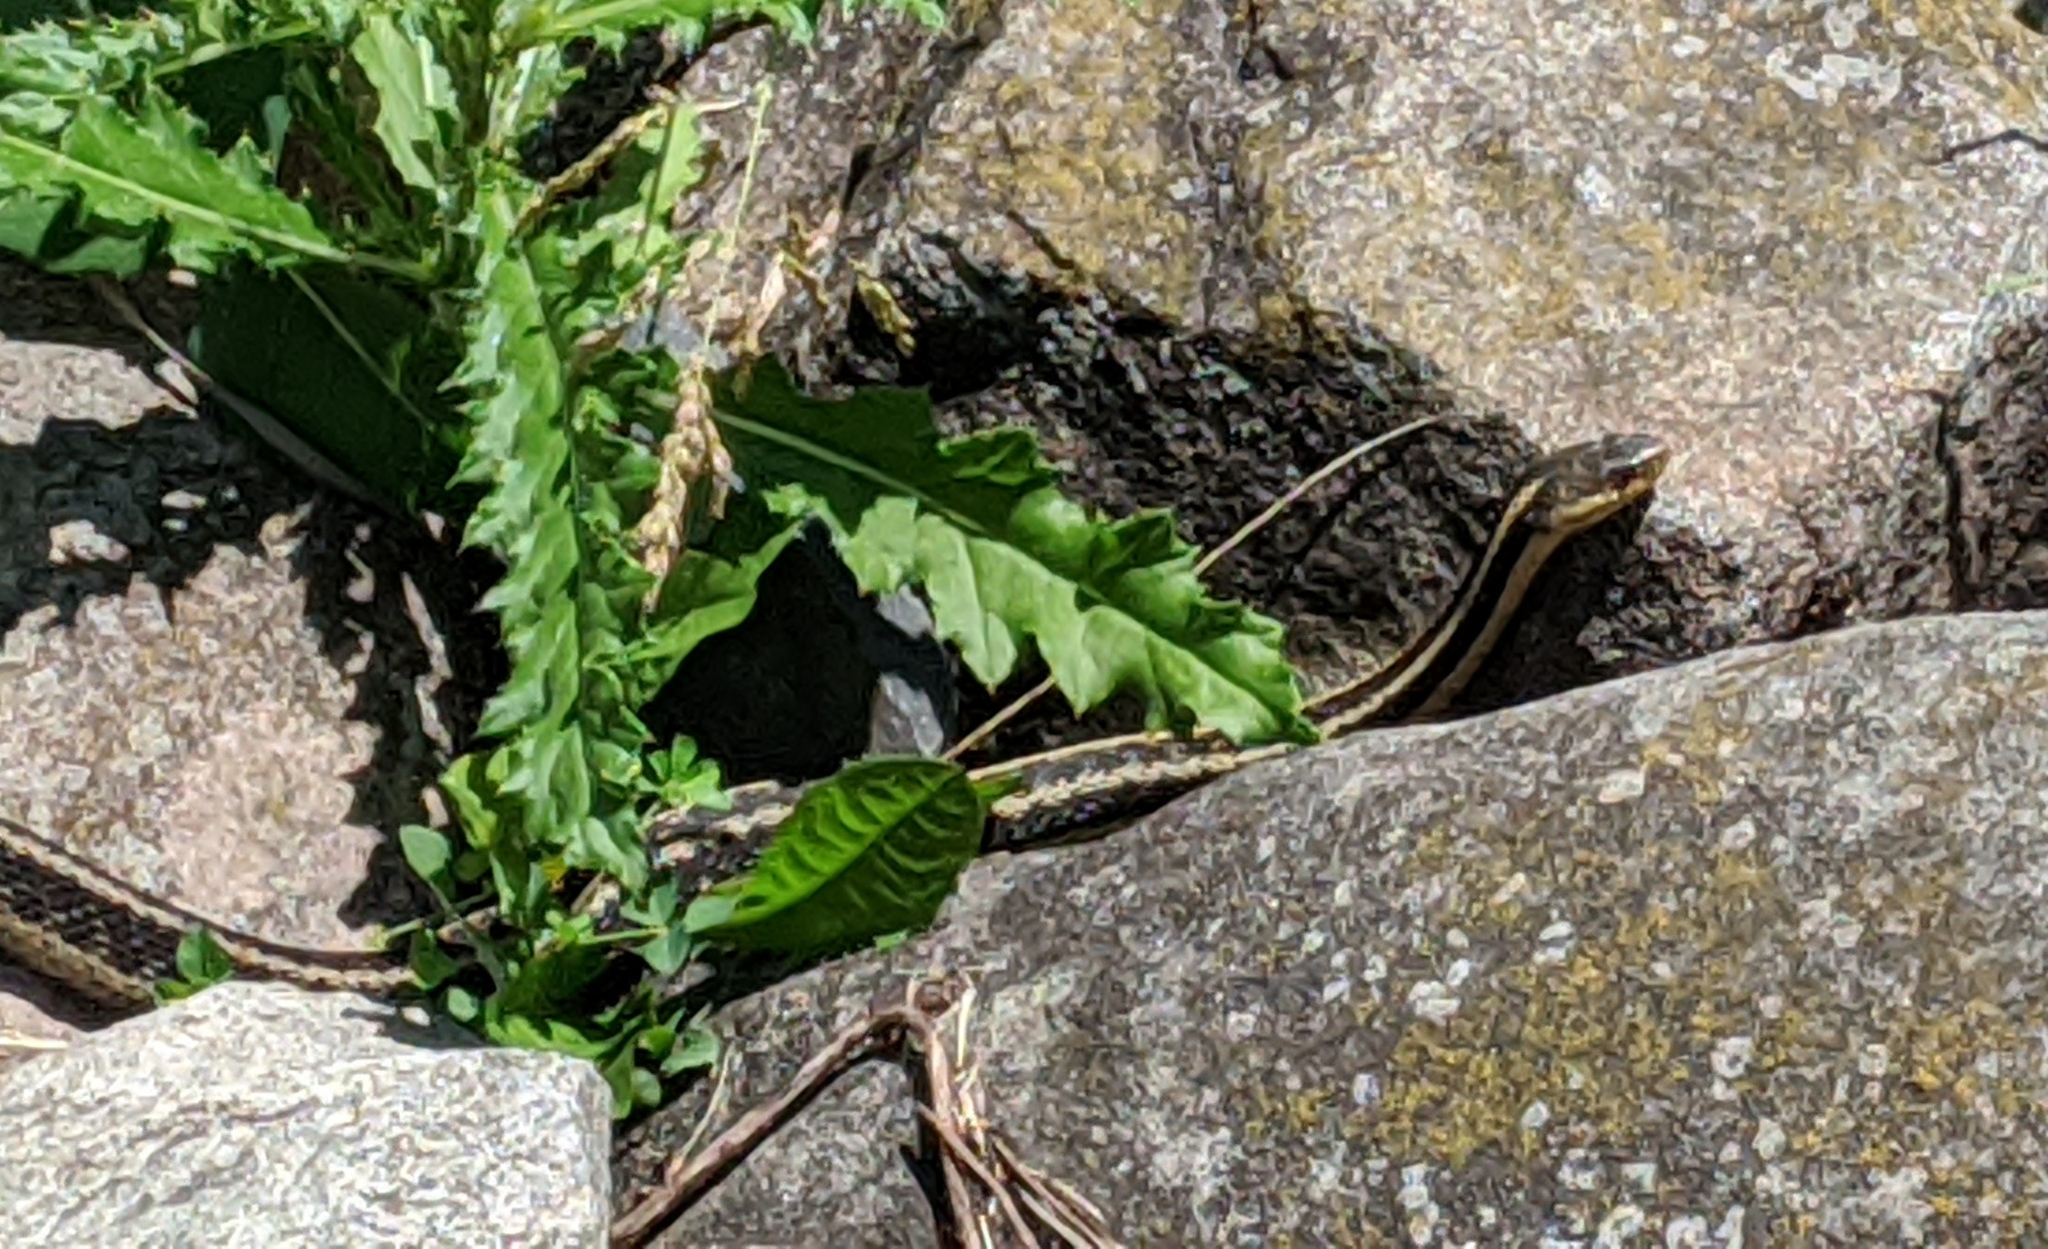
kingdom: Animalia
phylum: Chordata
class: Squamata
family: Colubridae
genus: Thamnophis
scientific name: Thamnophis sirtalis
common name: Common garter snake
